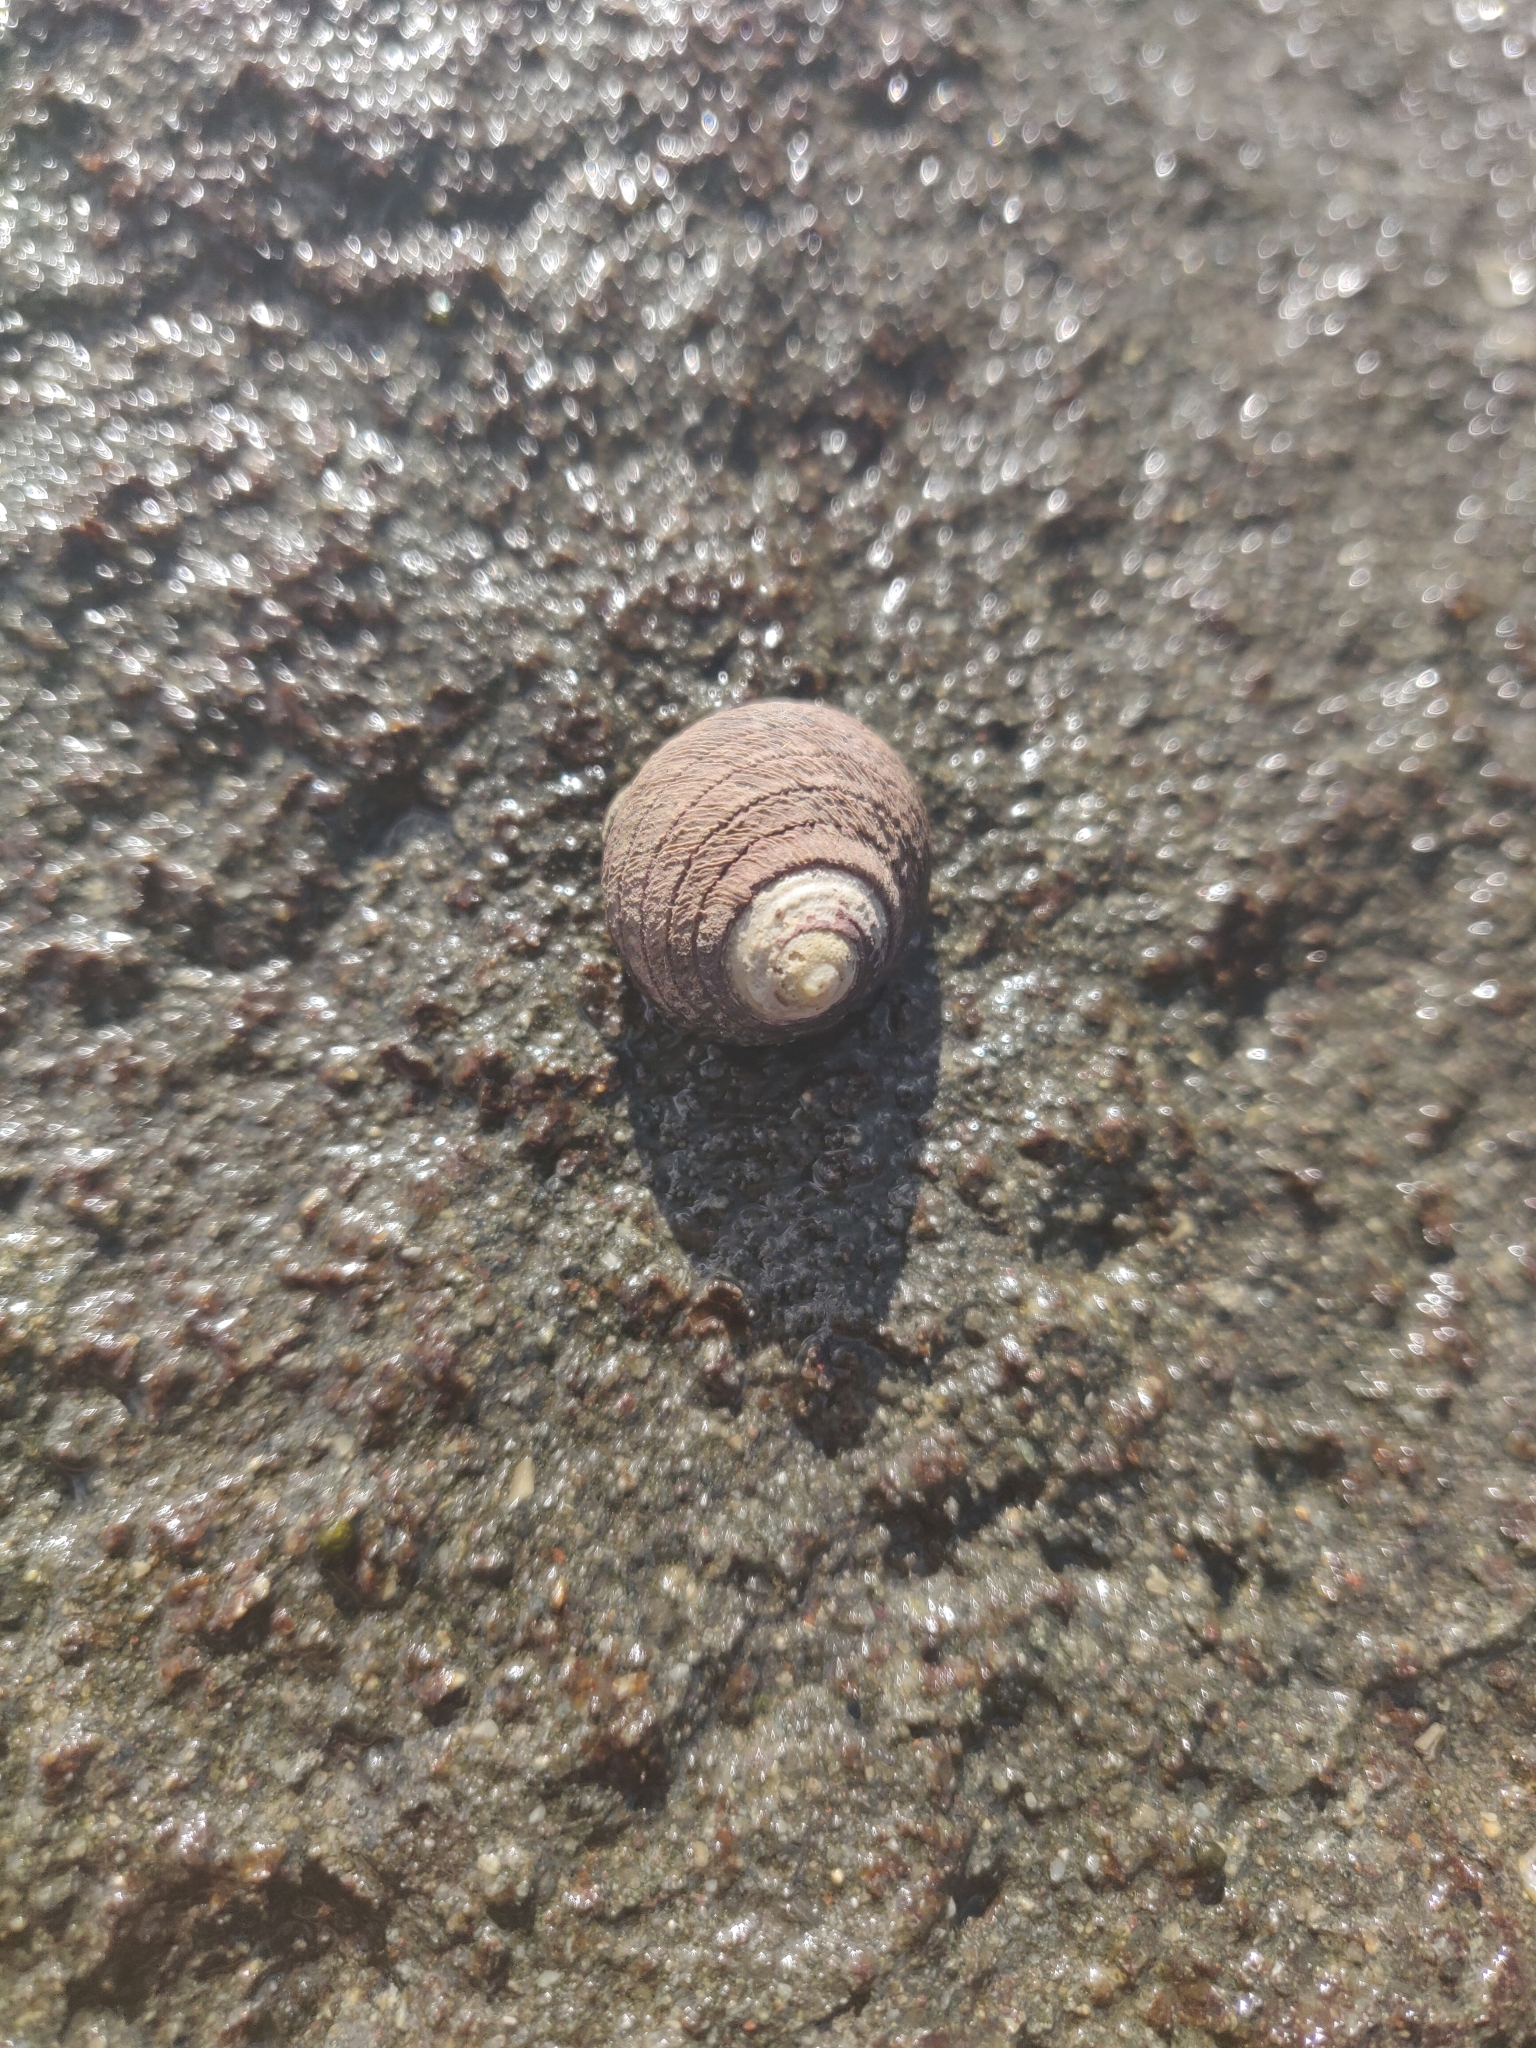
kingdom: Animalia
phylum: Mollusca
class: Gastropoda
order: Trochida
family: Trochidae
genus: Diloma
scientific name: Diloma aethiops
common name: Scorched monodont
